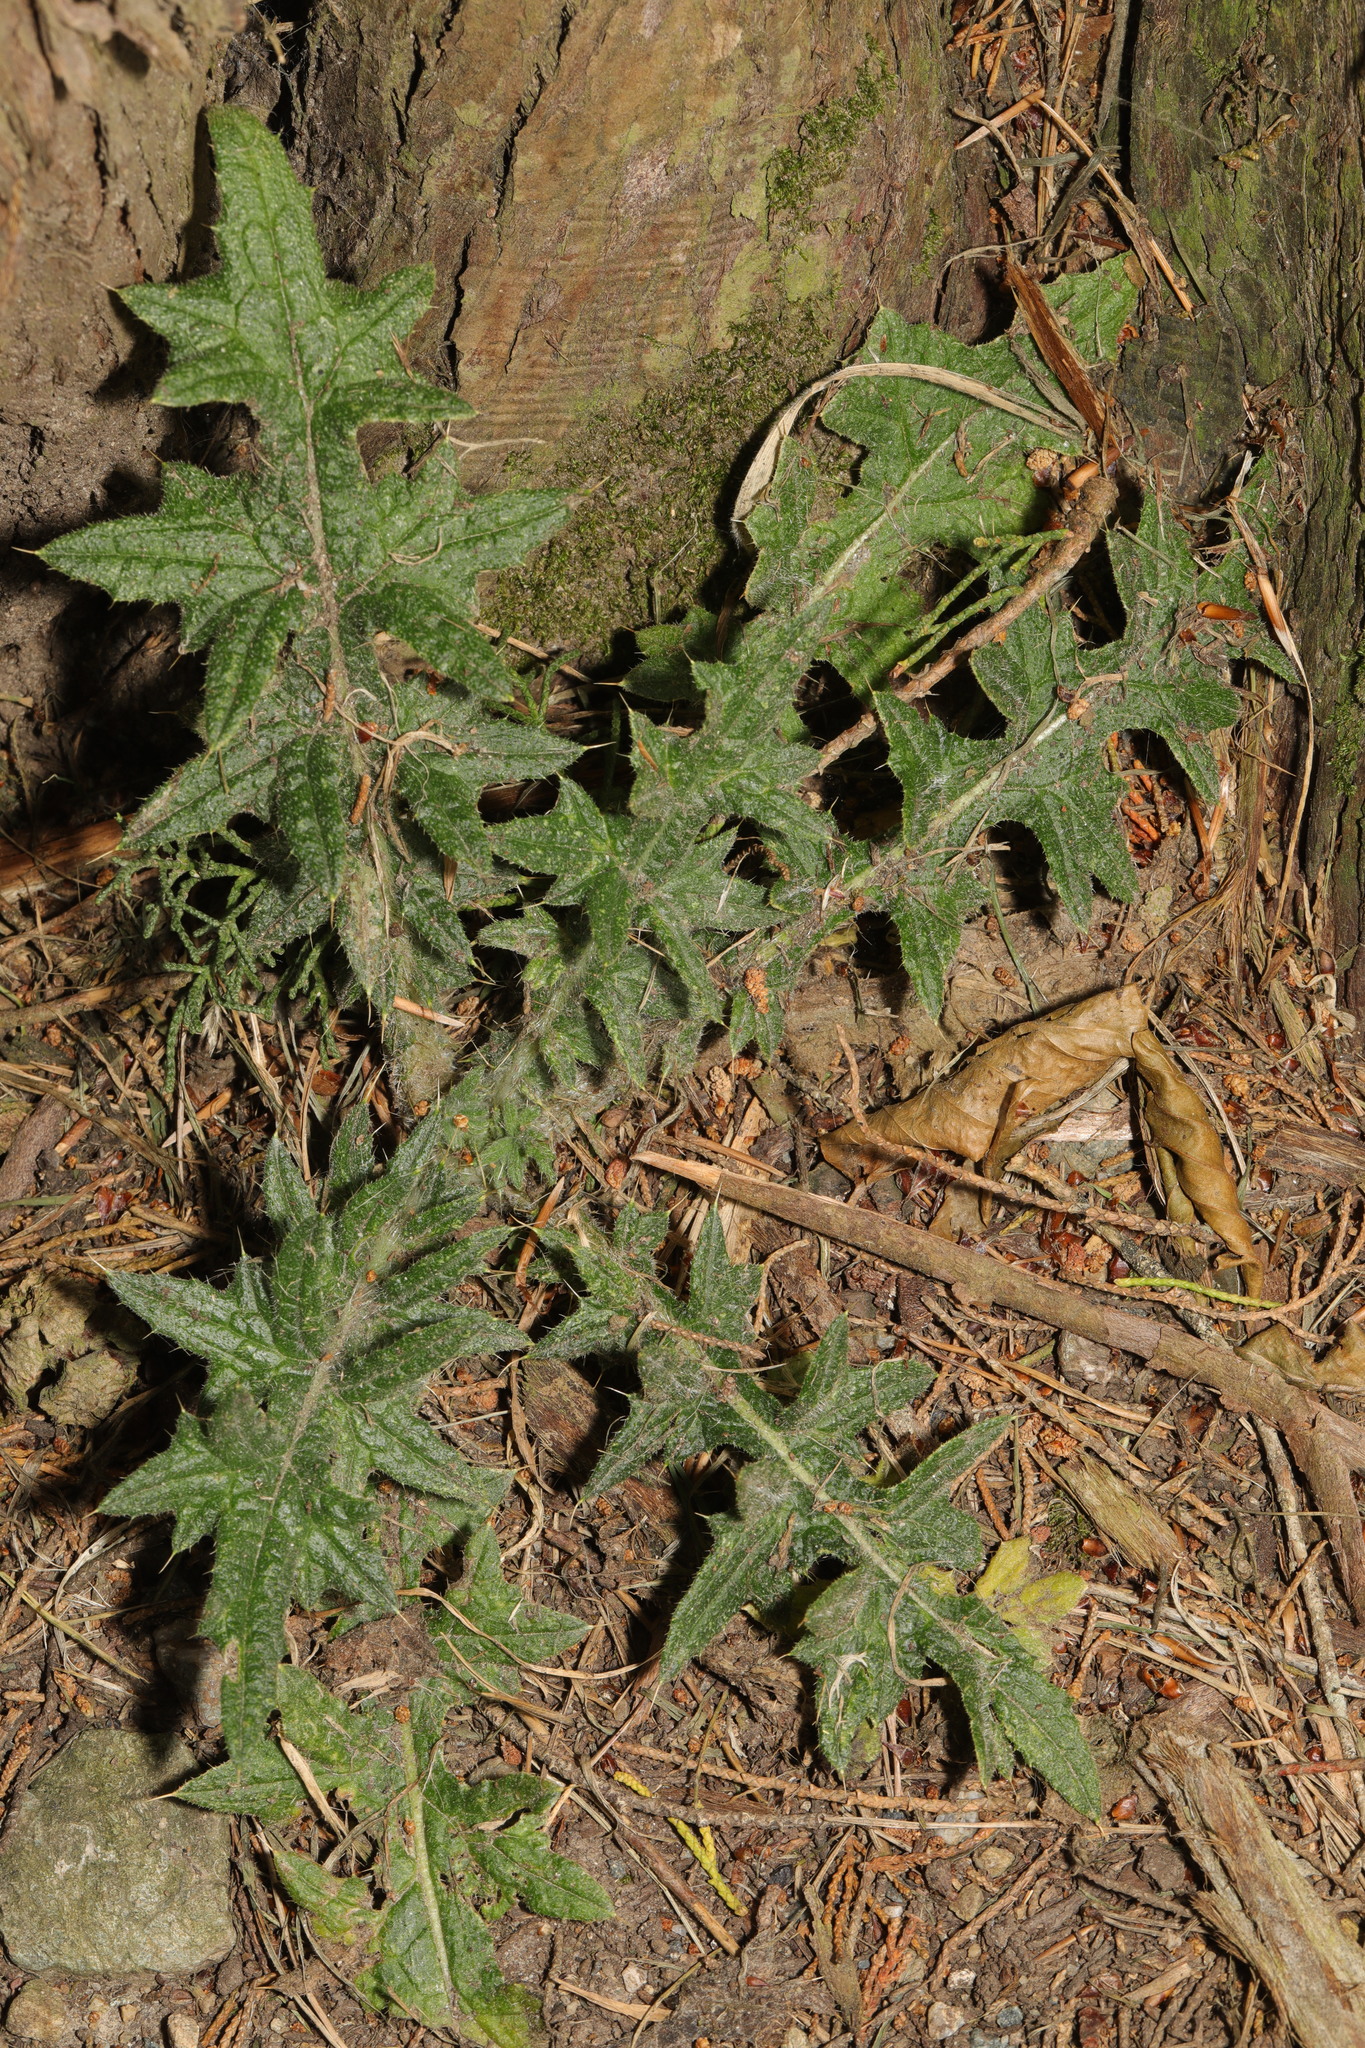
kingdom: Plantae
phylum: Tracheophyta
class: Magnoliopsida
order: Asterales
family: Asteraceae
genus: Cirsium
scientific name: Cirsium vulgare
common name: Bull thistle
